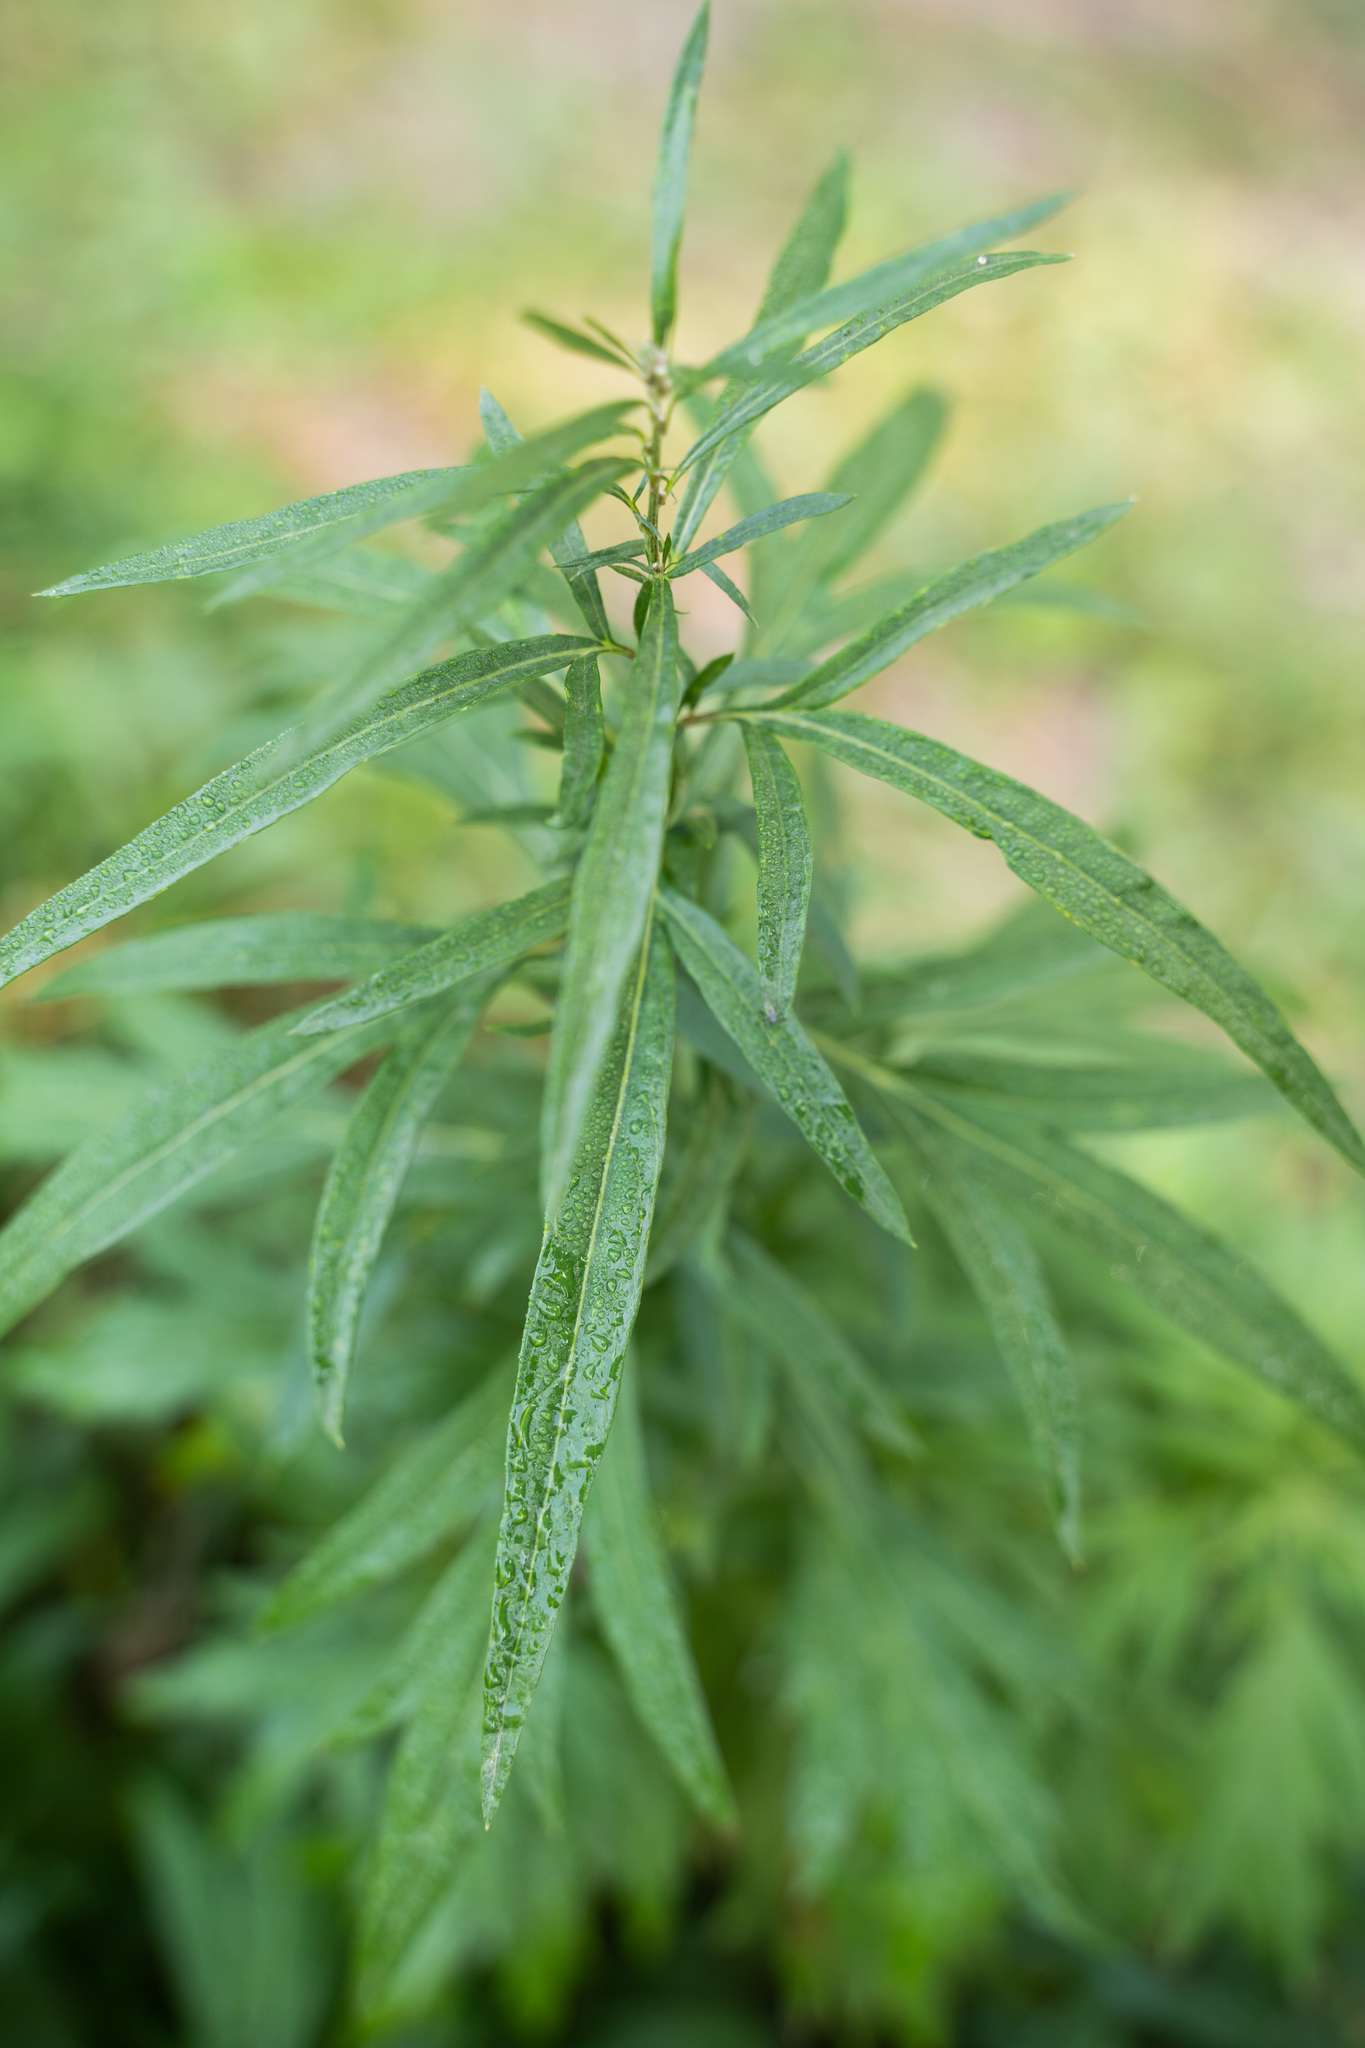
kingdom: Plantae
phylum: Tracheophyta
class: Magnoliopsida
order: Asterales
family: Asteraceae
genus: Artemisia
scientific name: Artemisia vulgaris
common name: Mugwort
